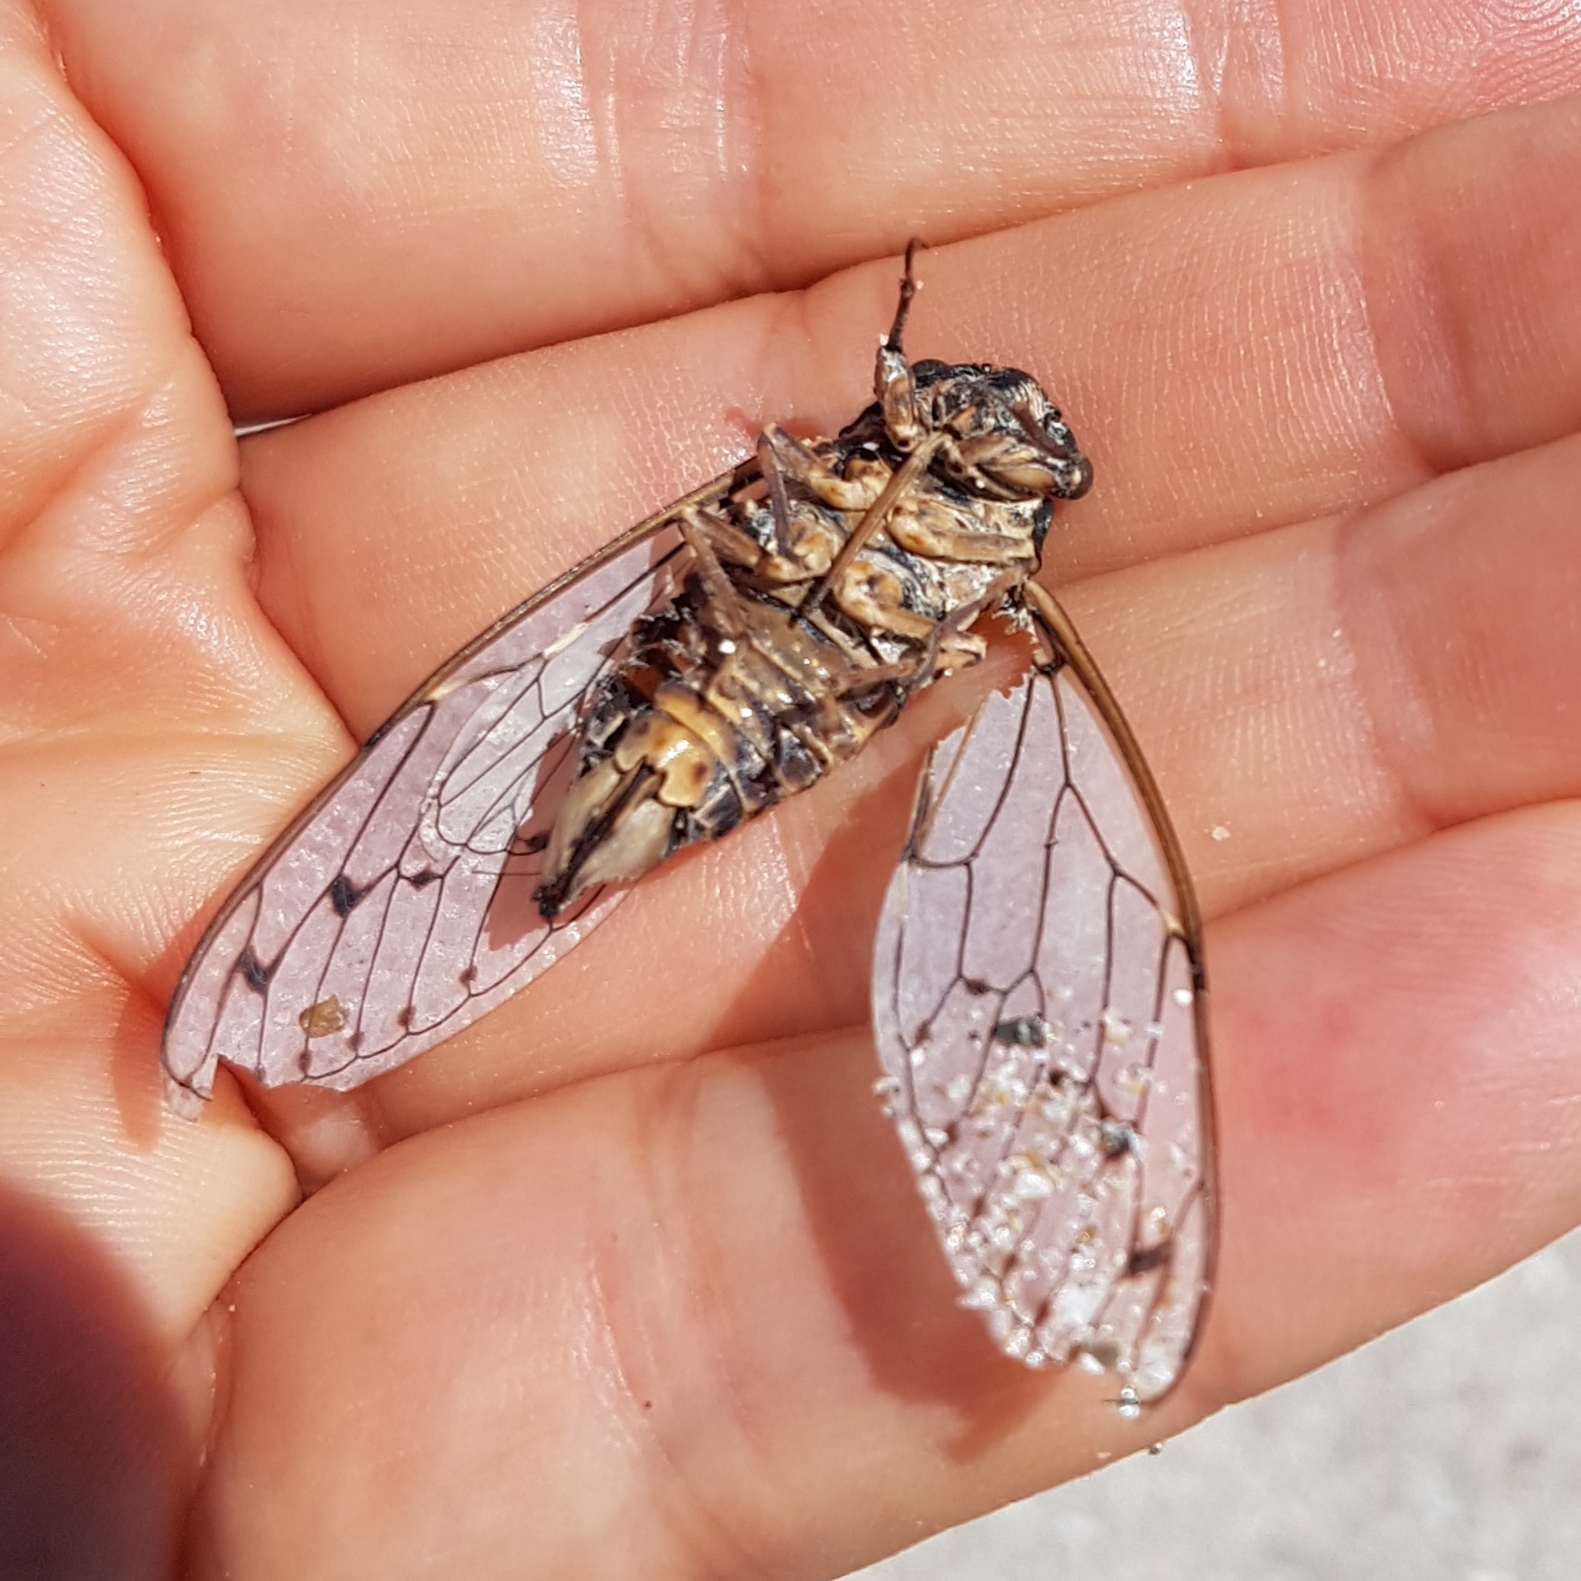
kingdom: Animalia
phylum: Arthropoda
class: Insecta
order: Hemiptera
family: Cicadidae
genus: Cicada
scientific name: Cicada orni
